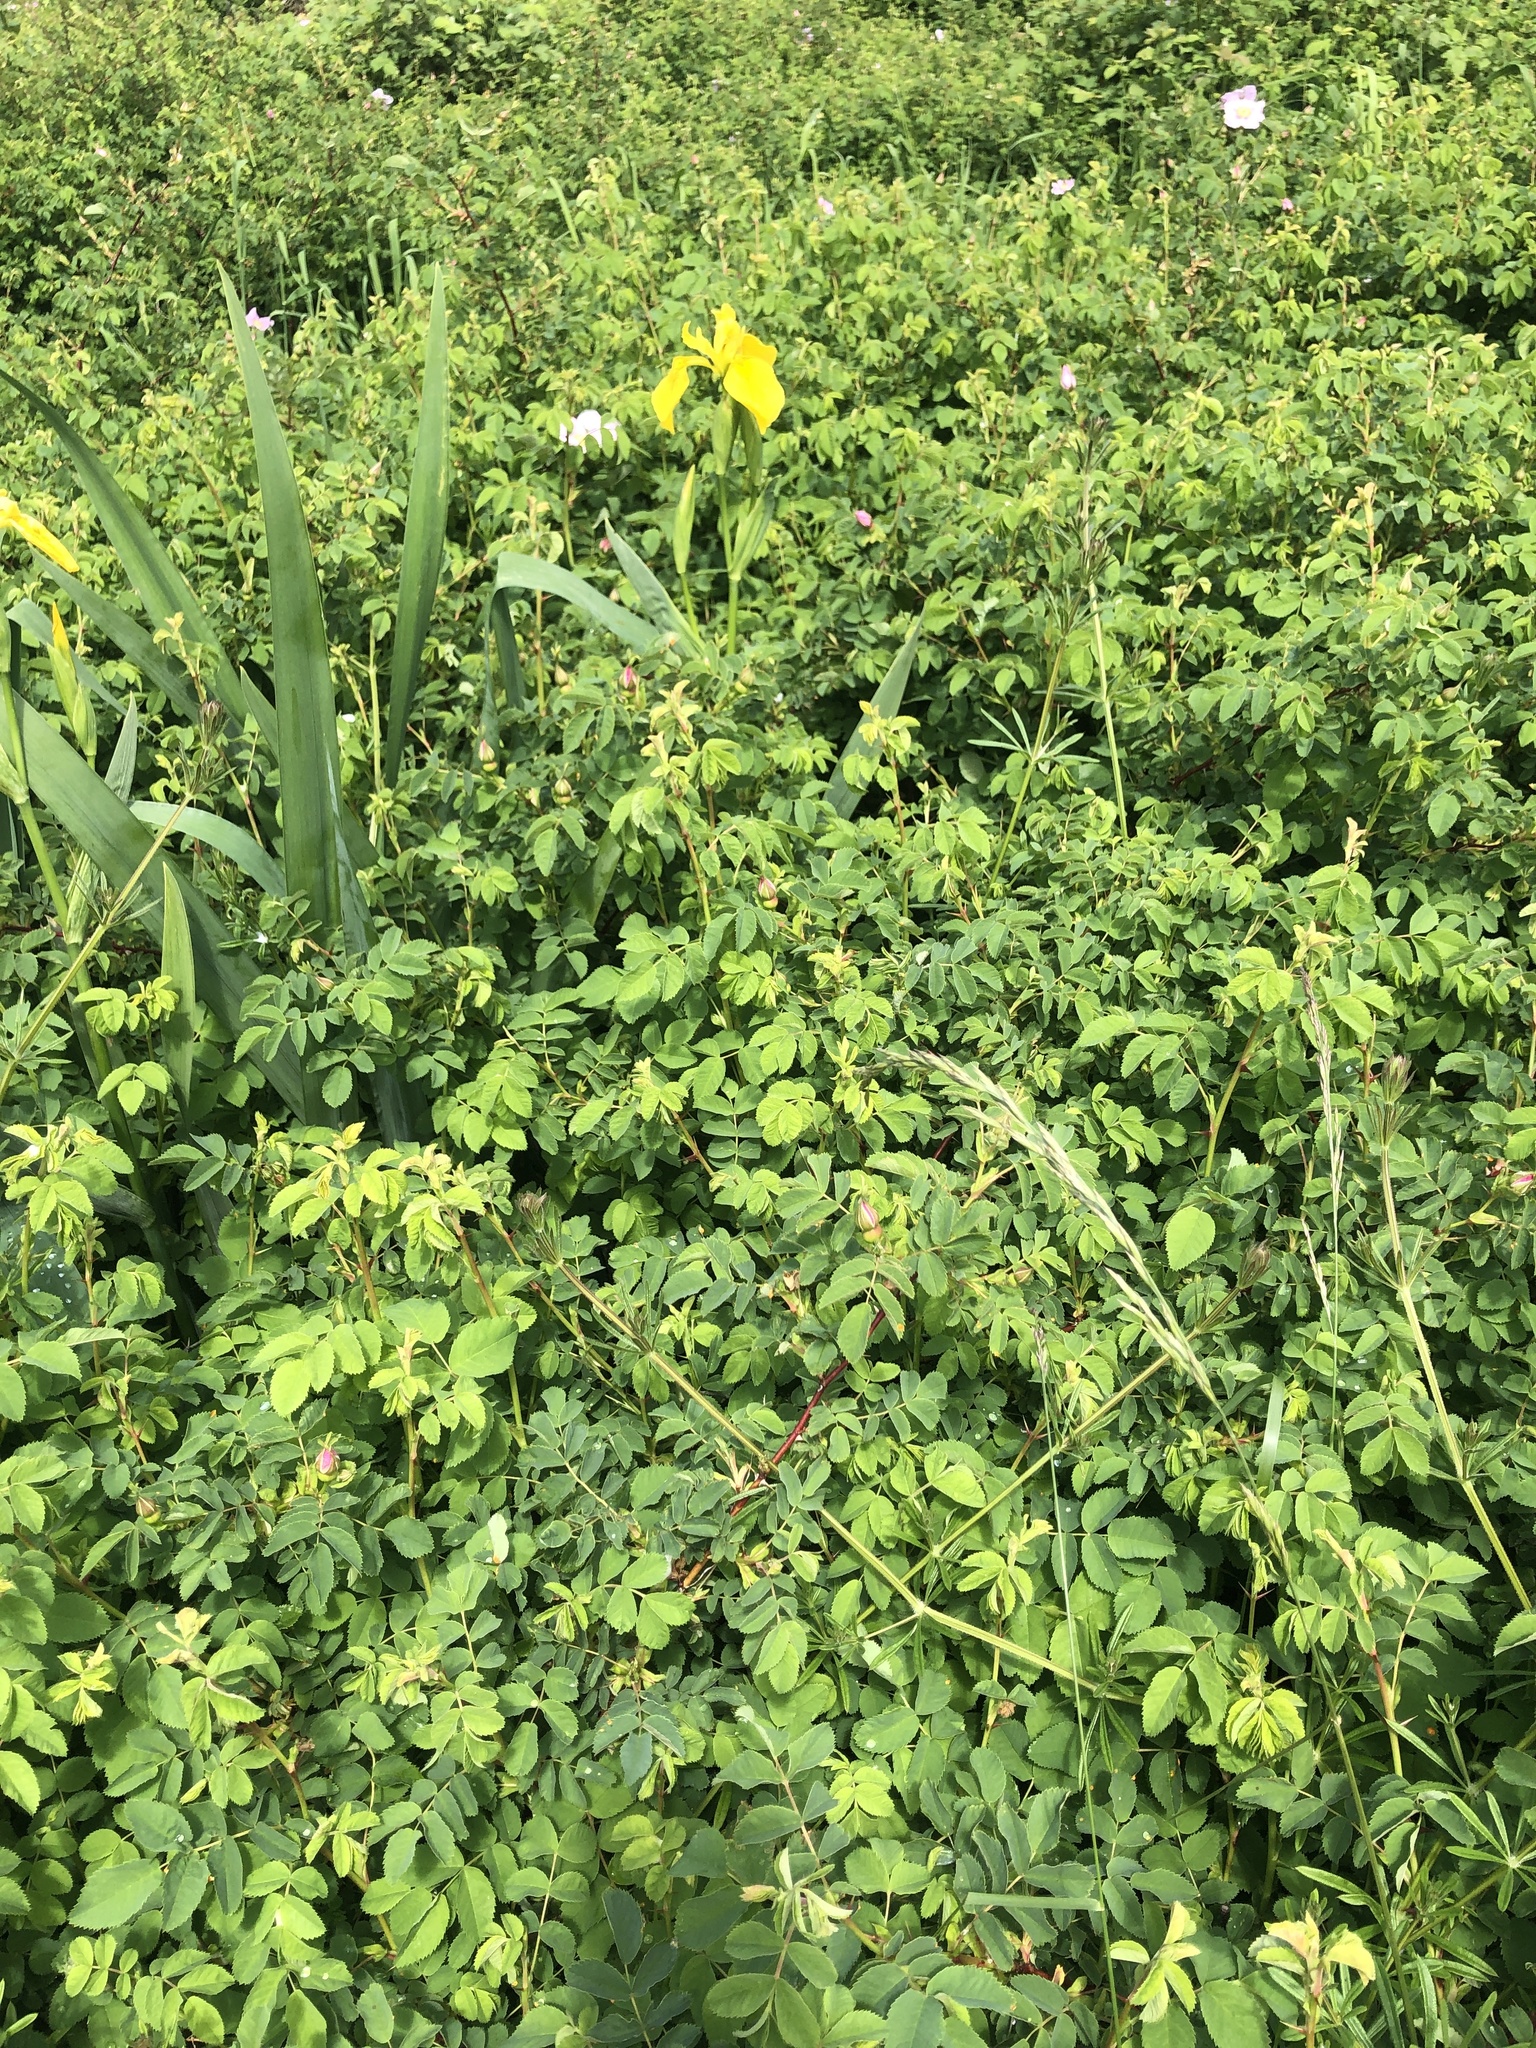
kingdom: Plantae
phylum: Tracheophyta
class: Liliopsida
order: Asparagales
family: Iridaceae
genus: Iris
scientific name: Iris pseudacorus
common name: Yellow flag
